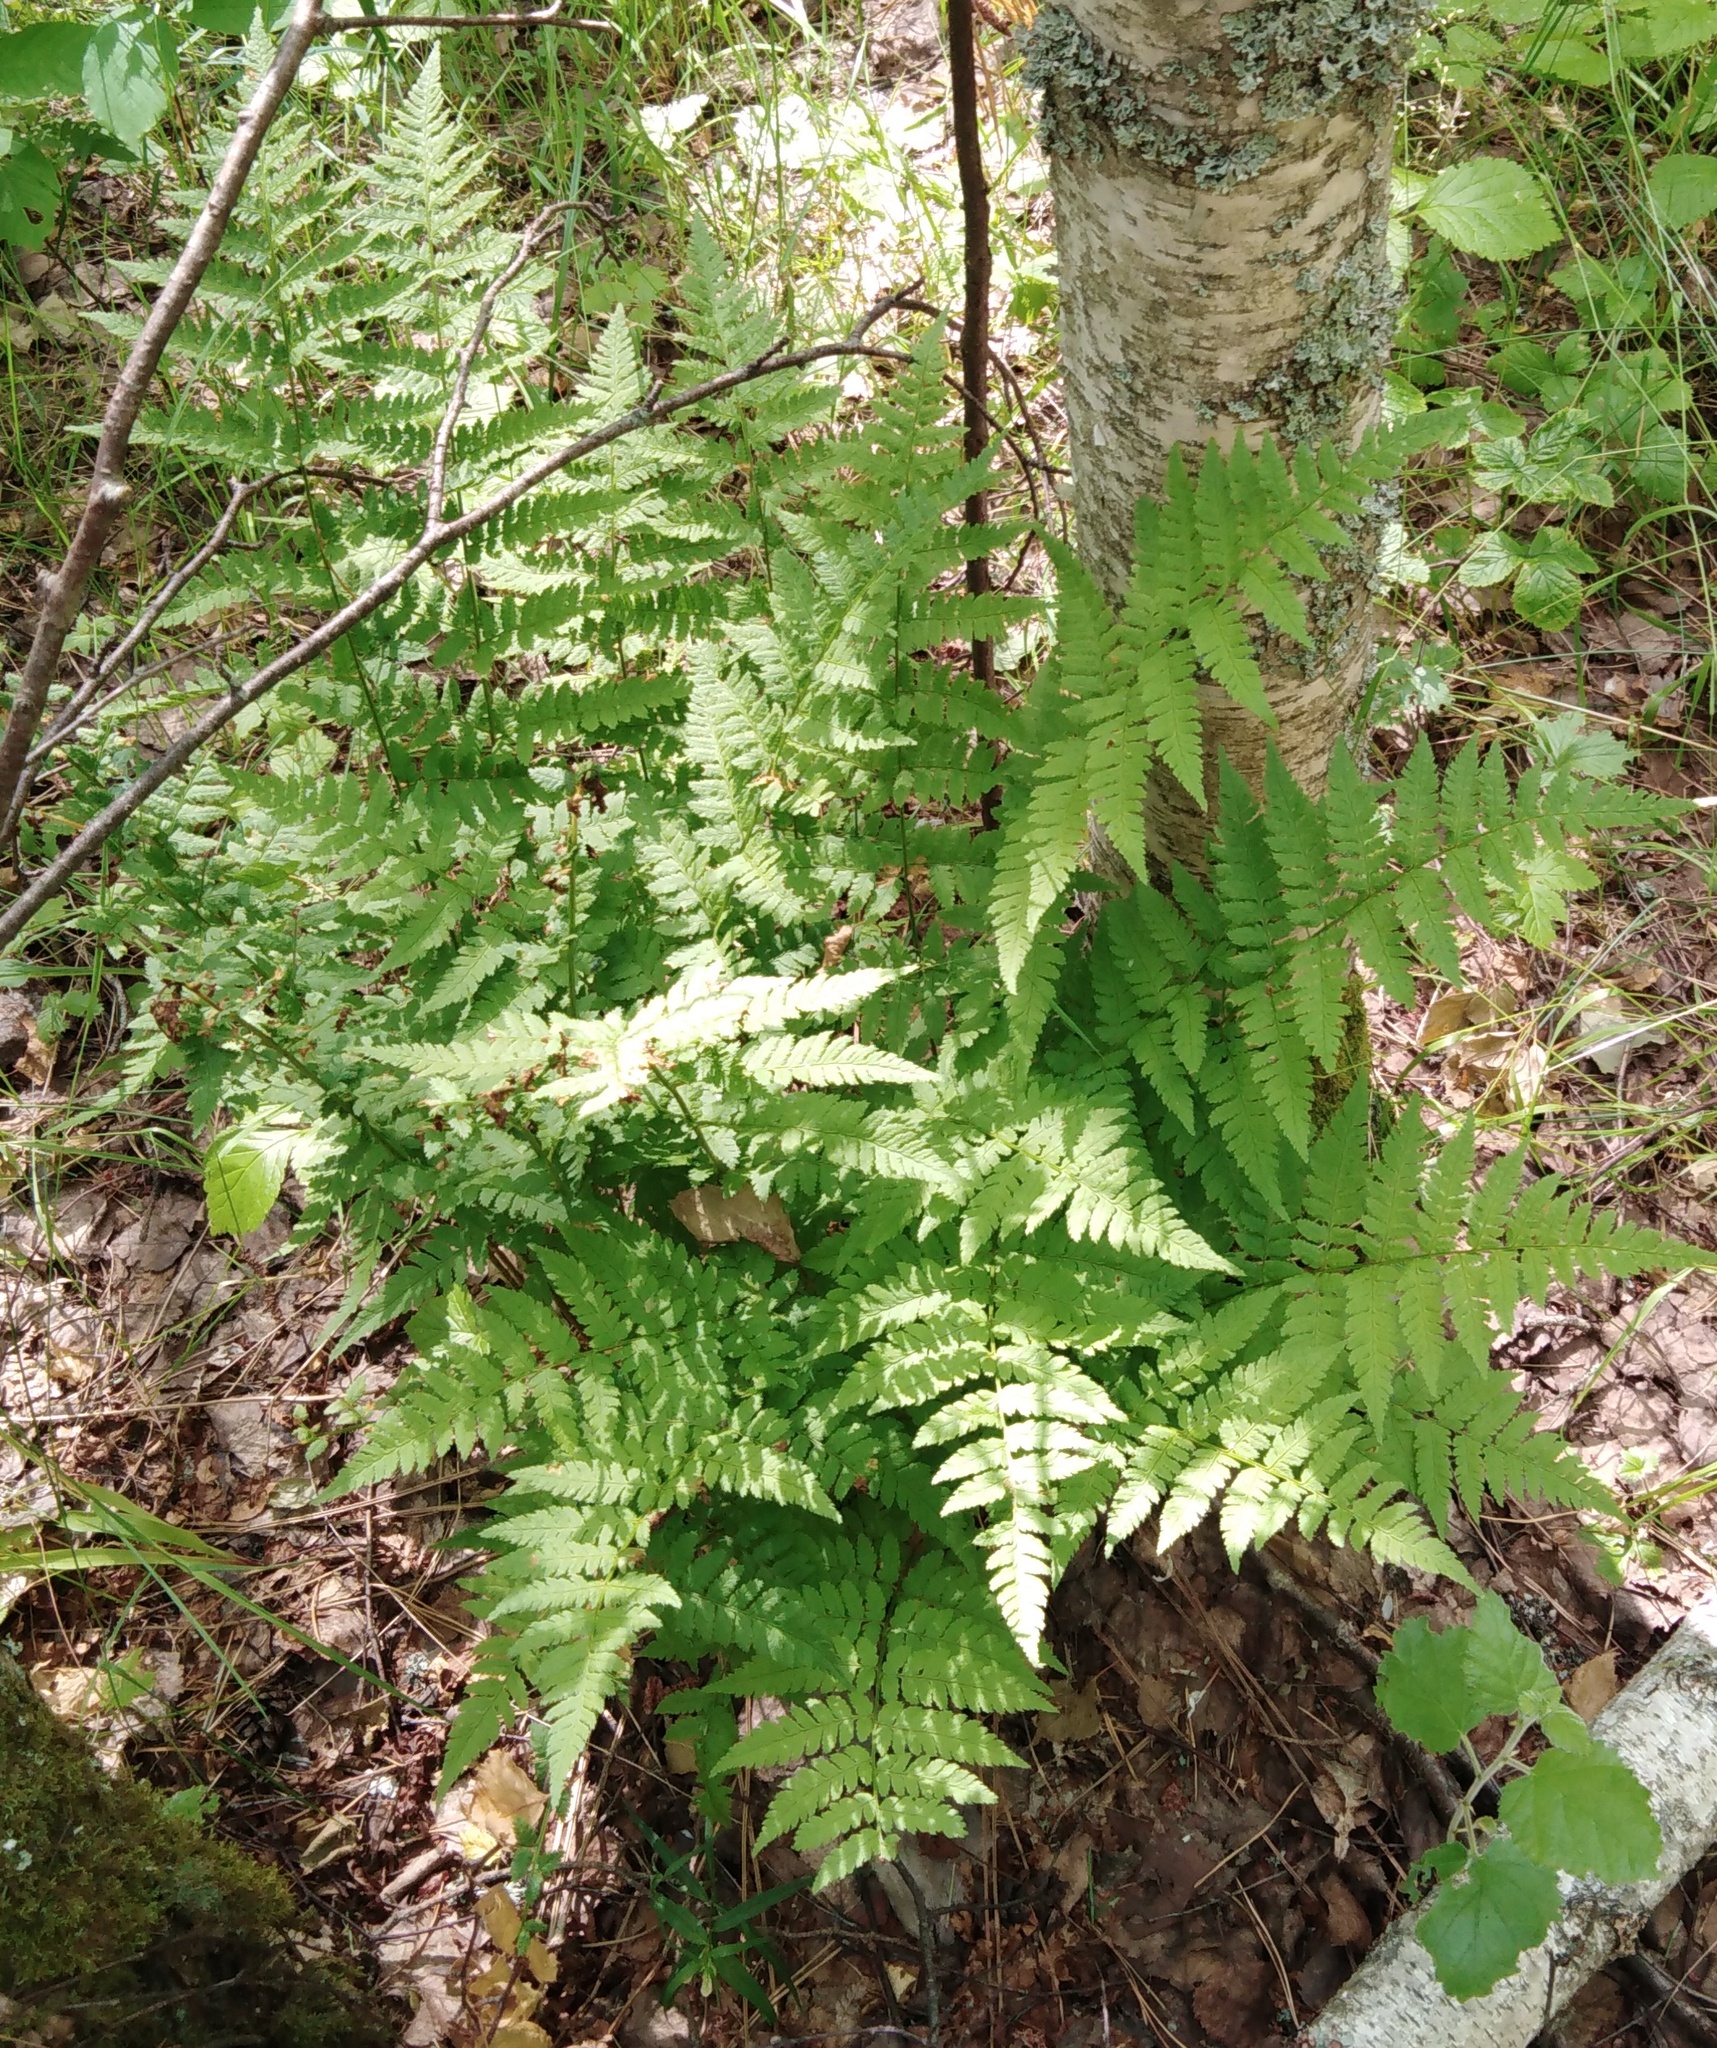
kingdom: Plantae
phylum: Tracheophyta
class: Polypodiopsida
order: Polypodiales
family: Dryopteridaceae
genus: Dryopteris
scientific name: Dryopteris carthusiana
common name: Narrow buckler-fern
